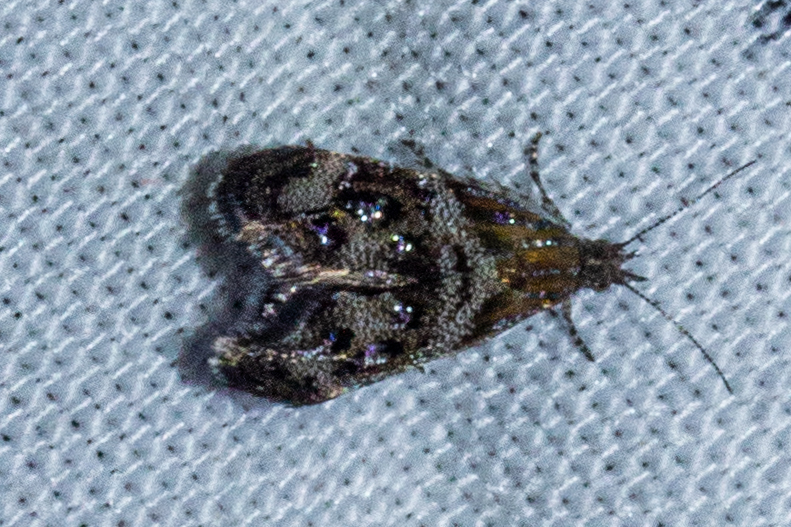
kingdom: Animalia
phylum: Arthropoda
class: Insecta
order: Lepidoptera
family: Choreutidae
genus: Tebenna
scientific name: Tebenna micalis
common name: Vagrant twitcher
